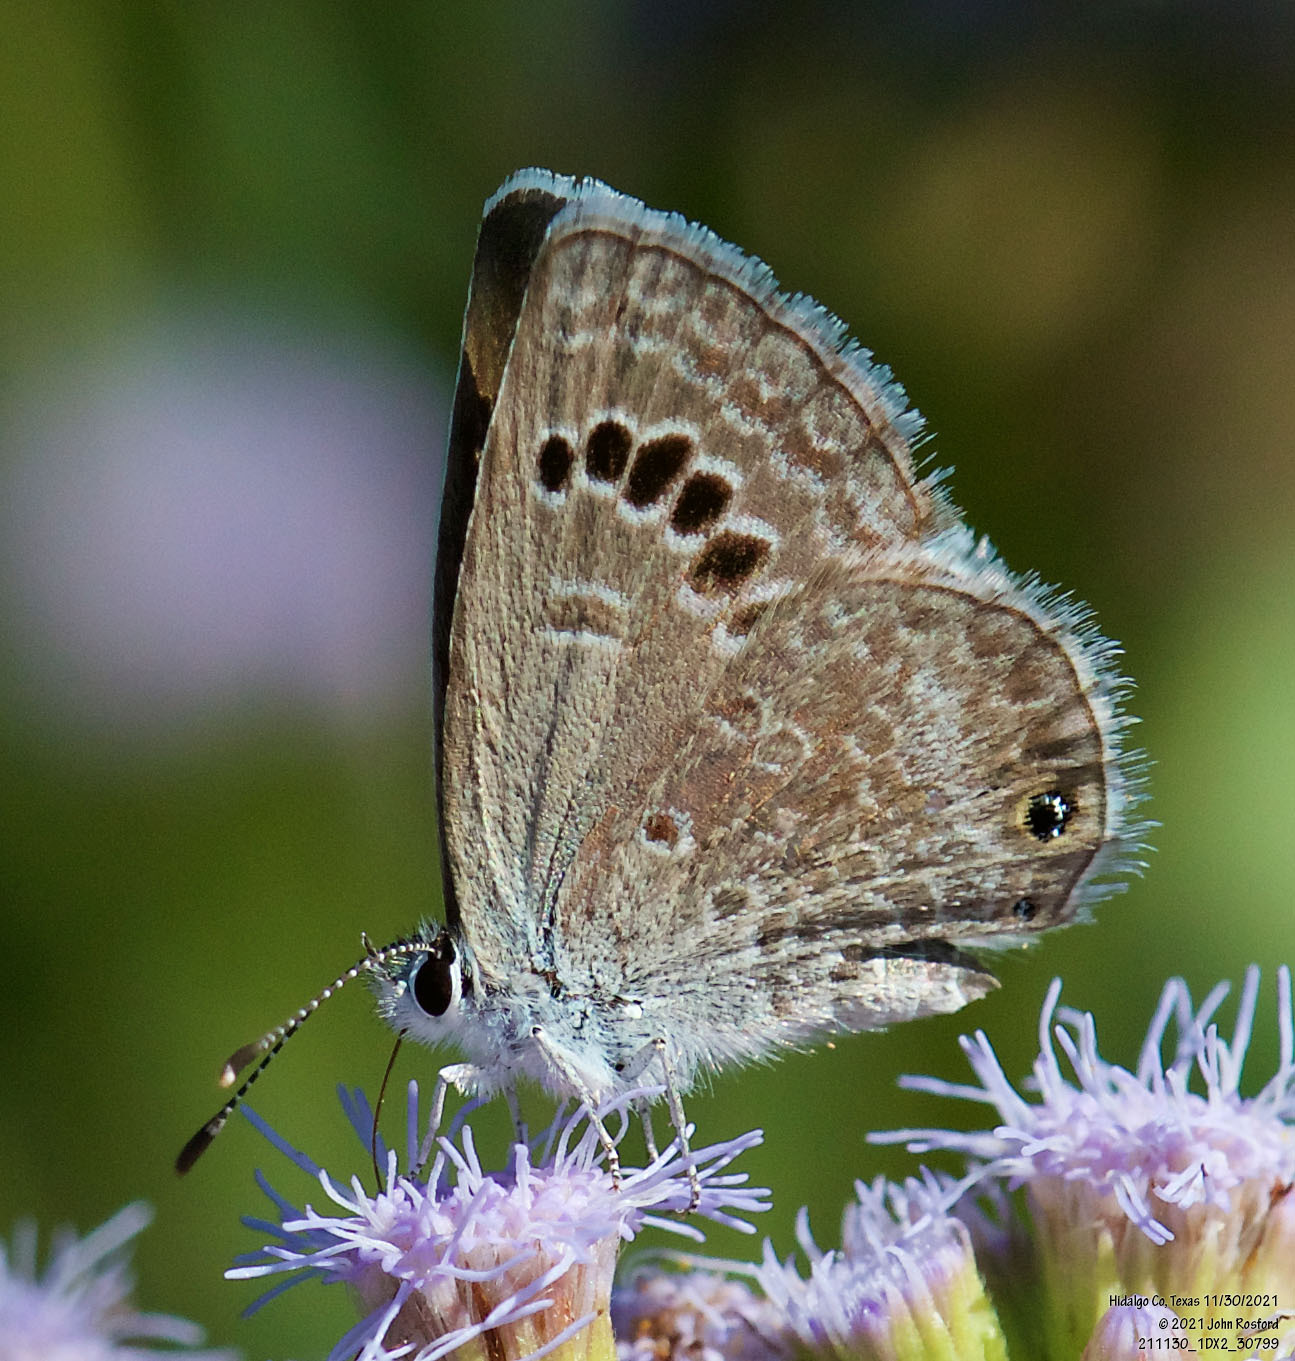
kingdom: Animalia
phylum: Arthropoda
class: Insecta
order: Lepidoptera
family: Lycaenidae
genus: Echinargus
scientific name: Echinargus isola
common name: Reakirt's blue
